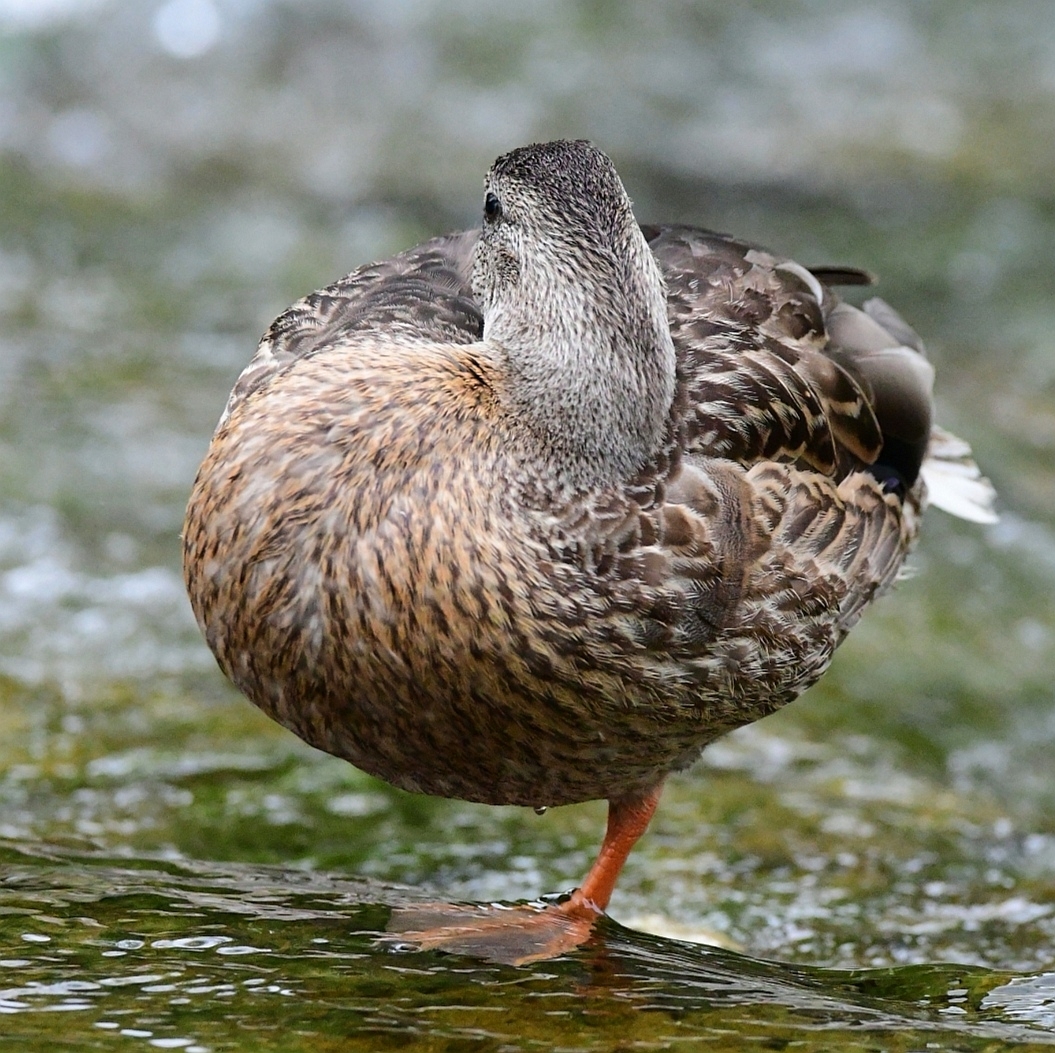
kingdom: Animalia
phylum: Chordata
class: Aves
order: Anseriformes
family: Anatidae
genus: Anas
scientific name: Anas platyrhynchos
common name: Mallard
